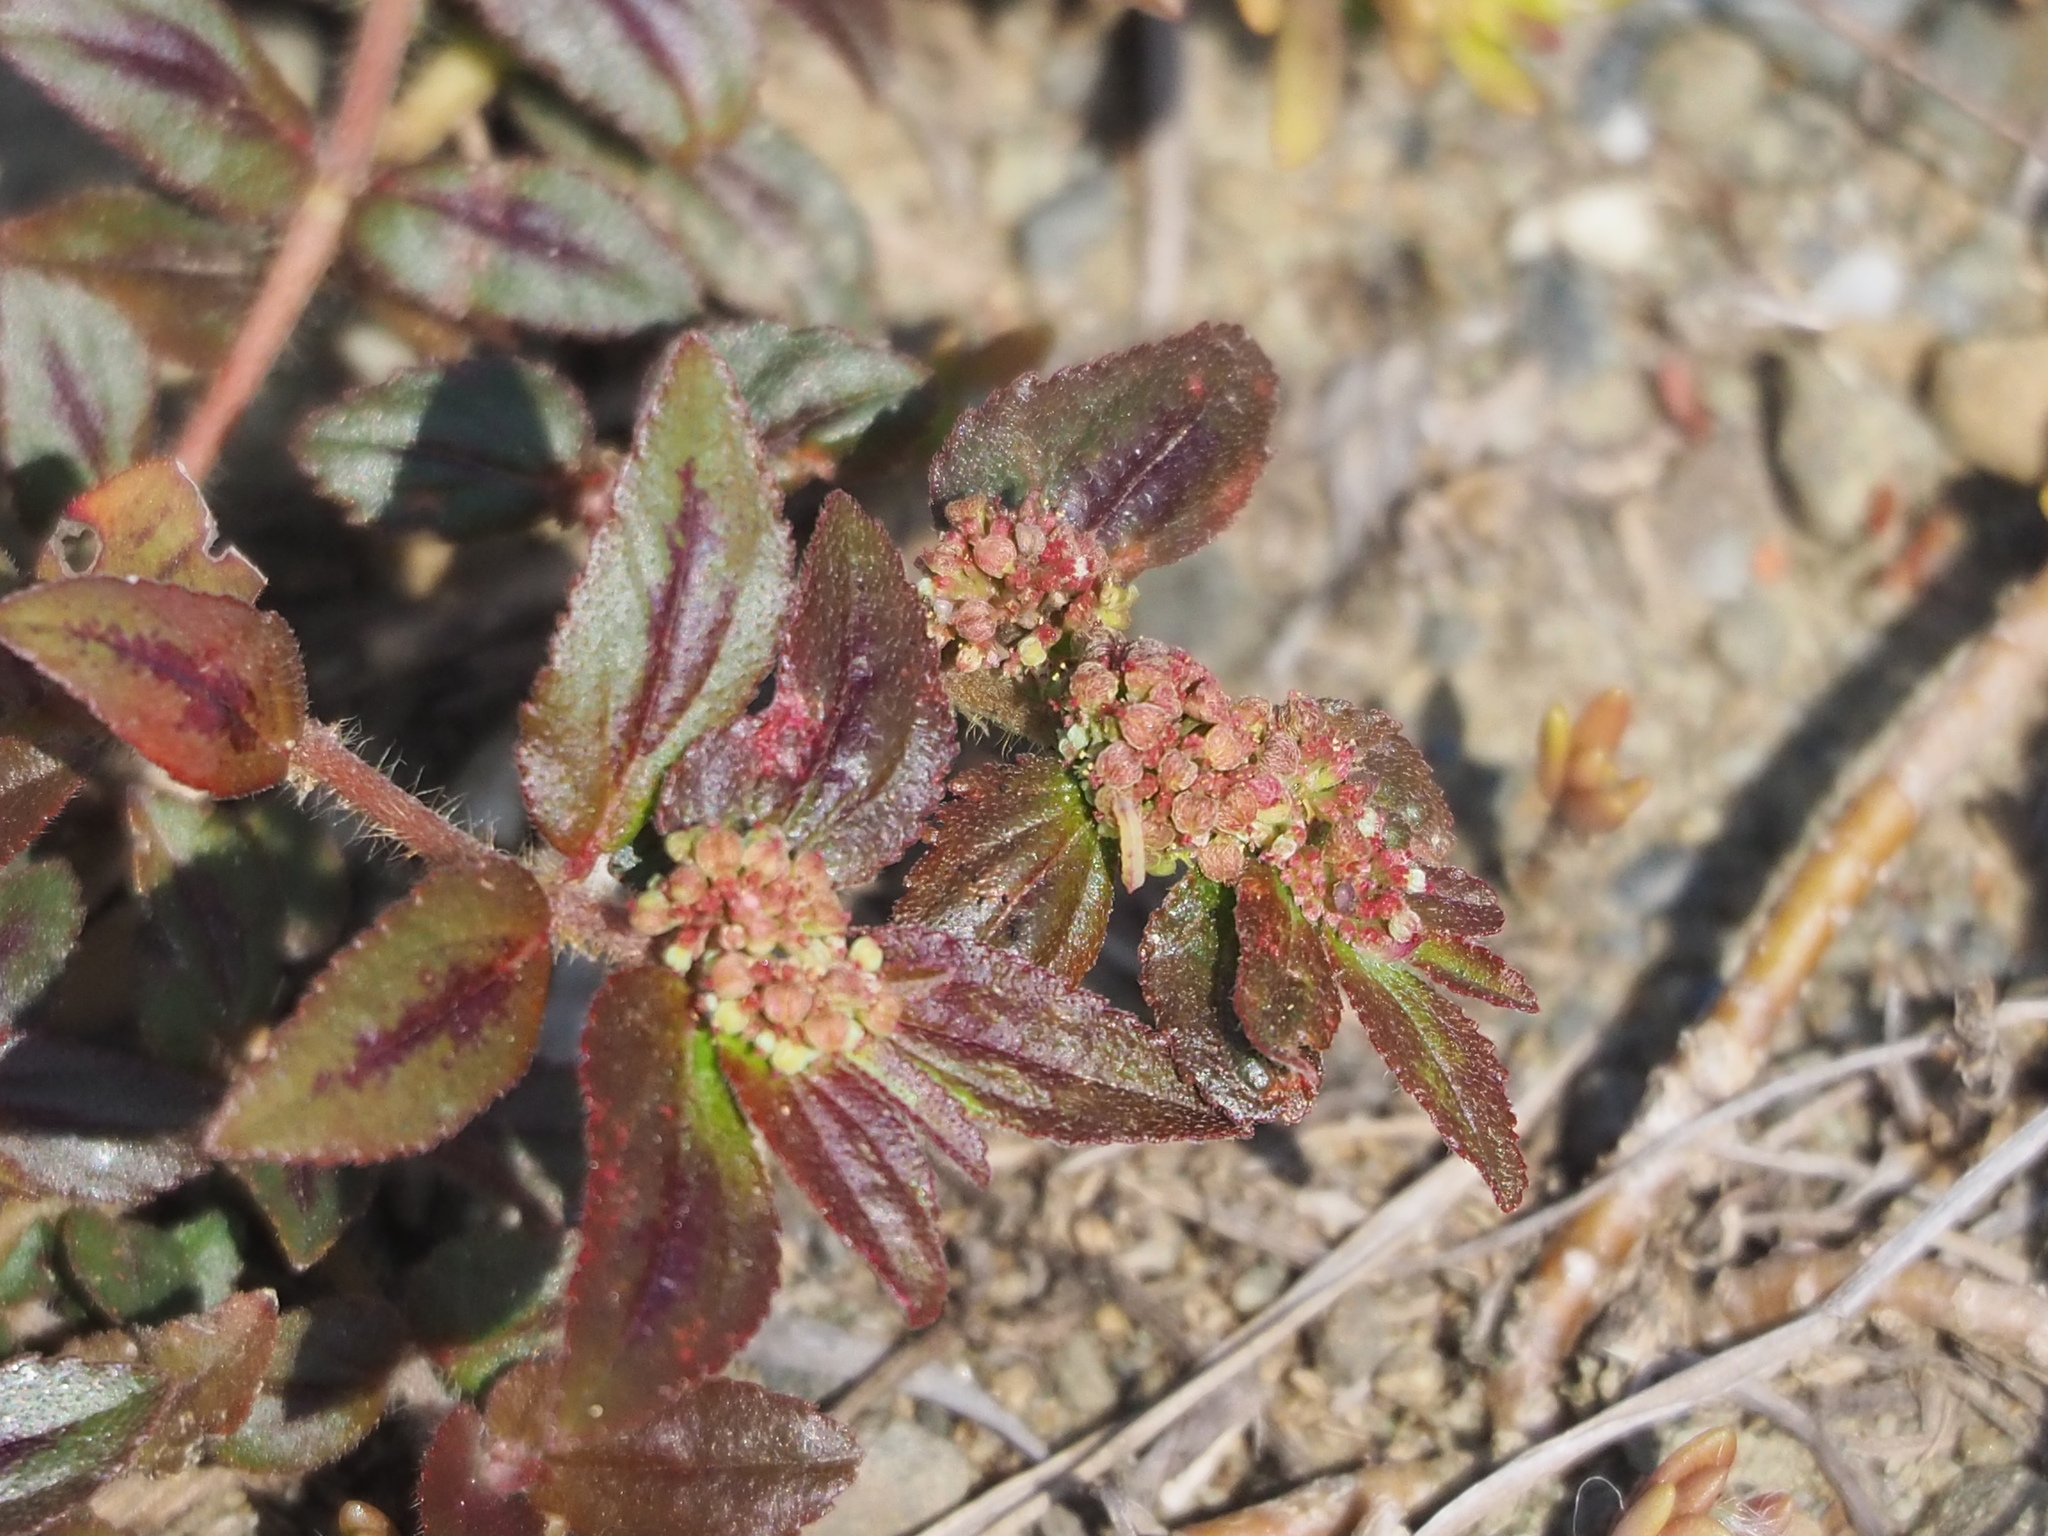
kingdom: Plantae
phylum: Tracheophyta
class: Magnoliopsida
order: Malpighiales
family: Euphorbiaceae
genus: Euphorbia
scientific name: Euphorbia hirta
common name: Pillpod sandmat
